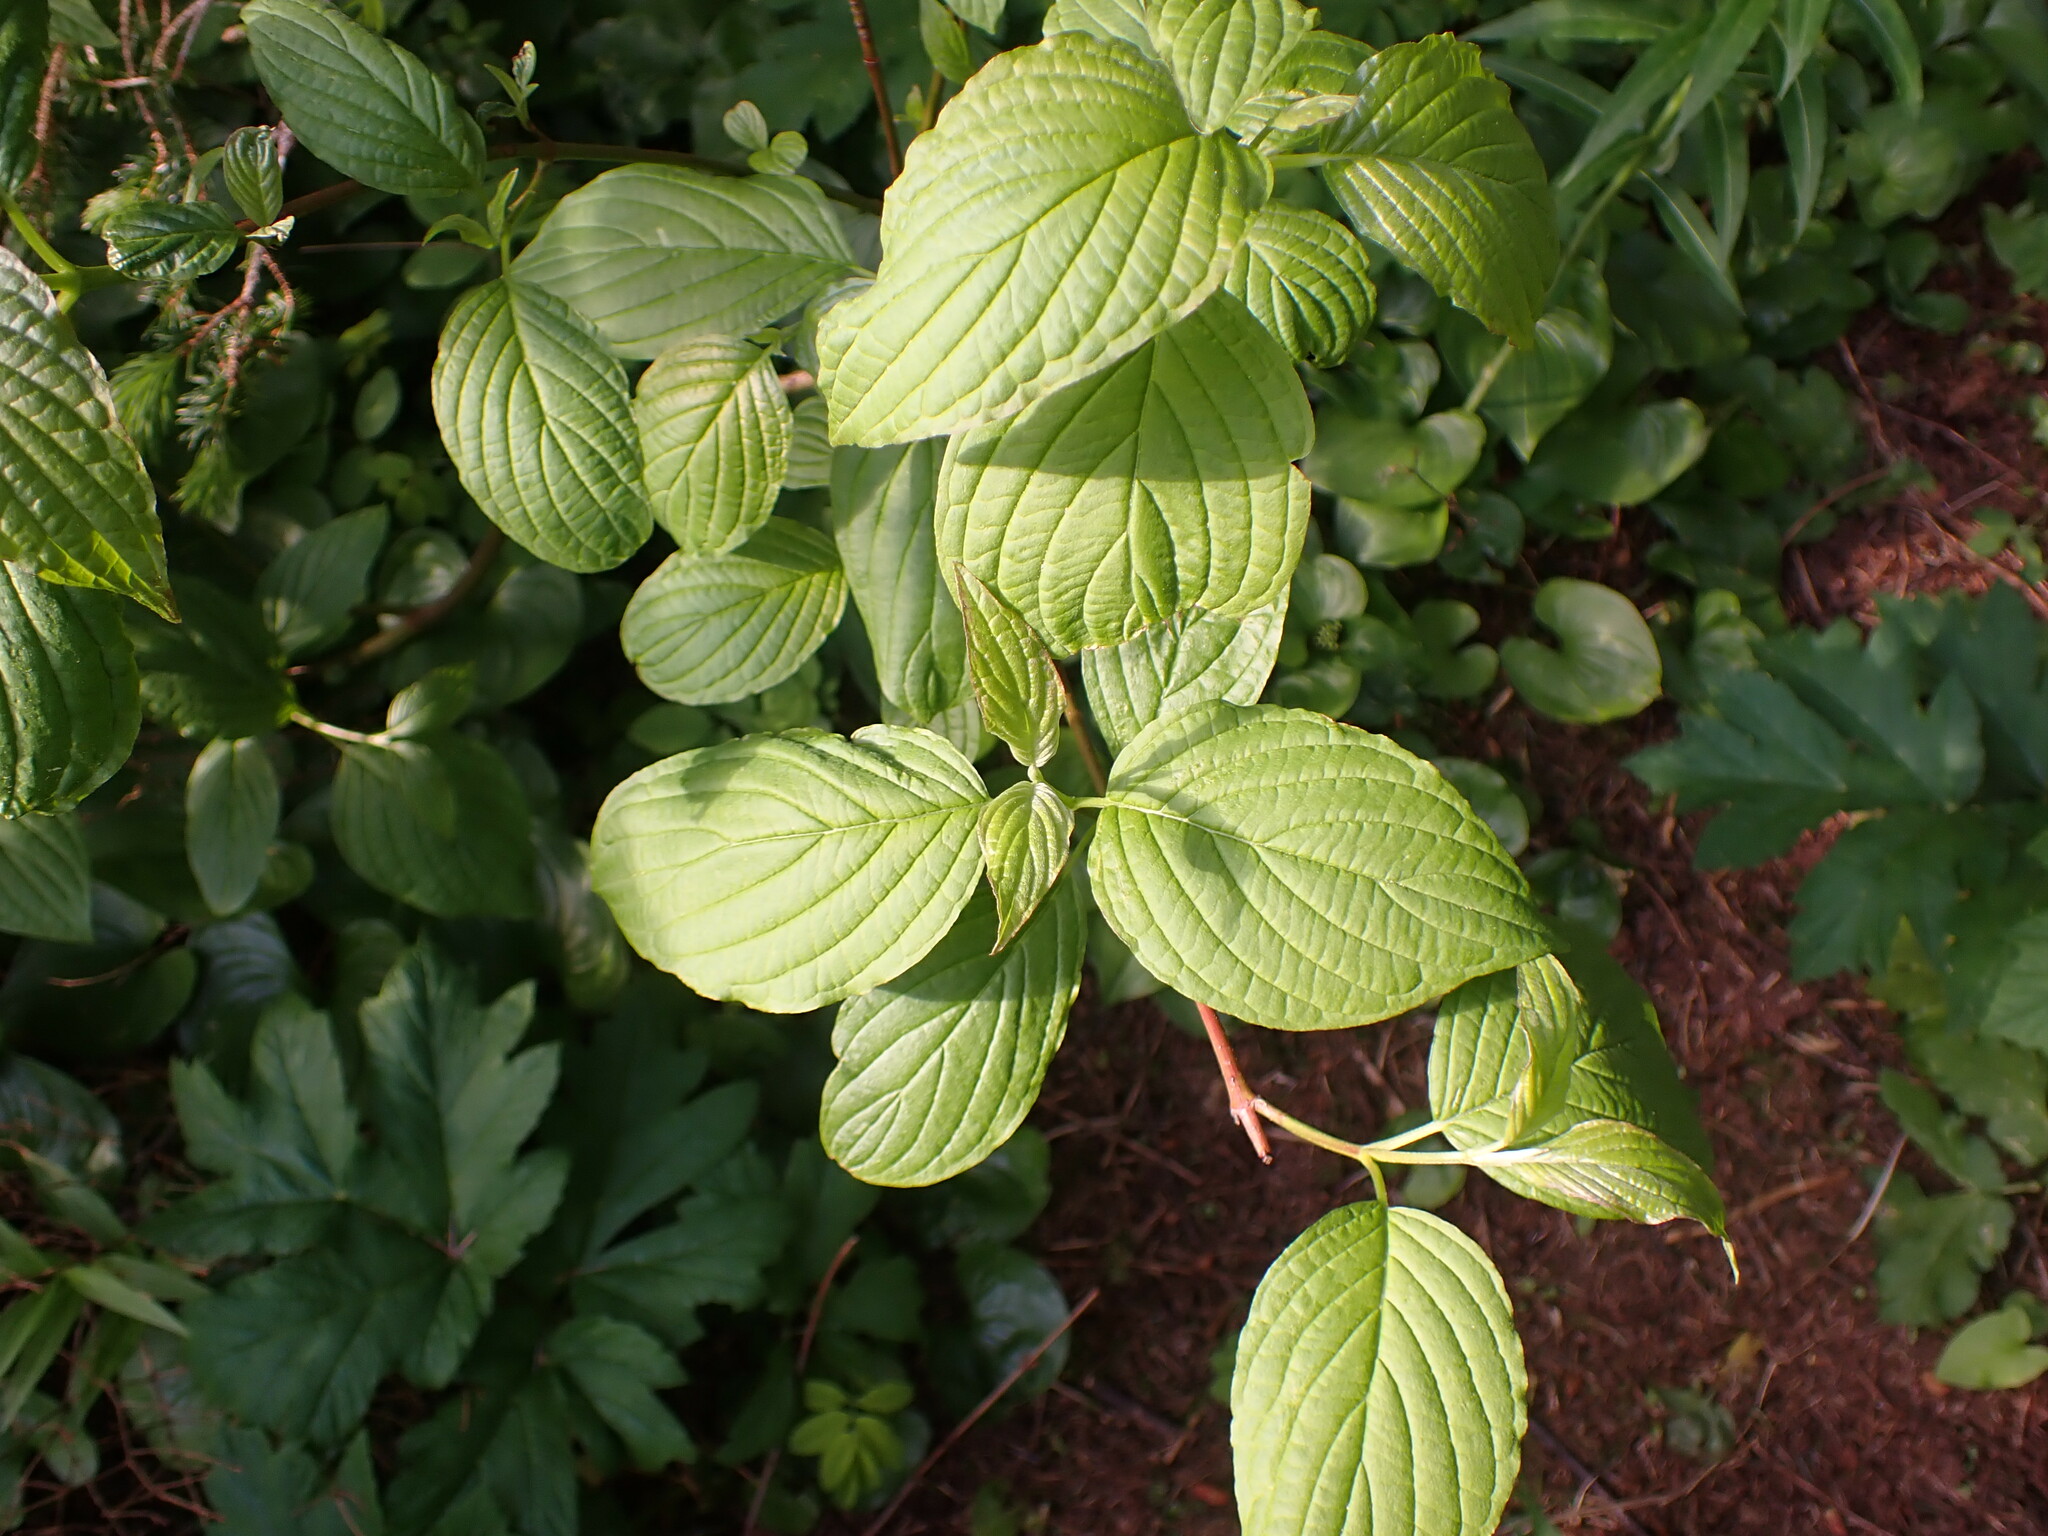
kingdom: Plantae
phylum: Tracheophyta
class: Magnoliopsida
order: Cornales
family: Cornaceae
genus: Cornus
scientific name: Cornus sericea
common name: Red-osier dogwood
